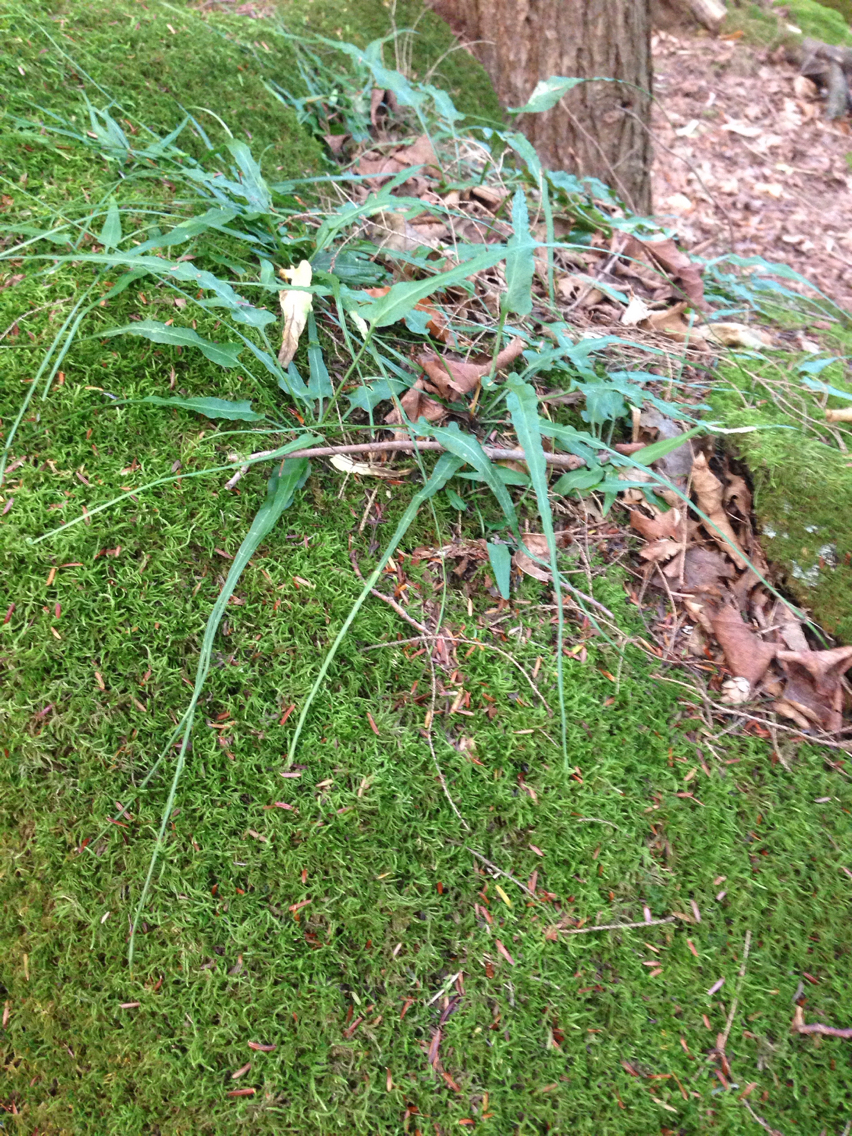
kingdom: Plantae
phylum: Tracheophyta
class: Polypodiopsida
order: Polypodiales
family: Aspleniaceae
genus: Asplenium
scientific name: Asplenium rhizophyllum
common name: Walking fern
